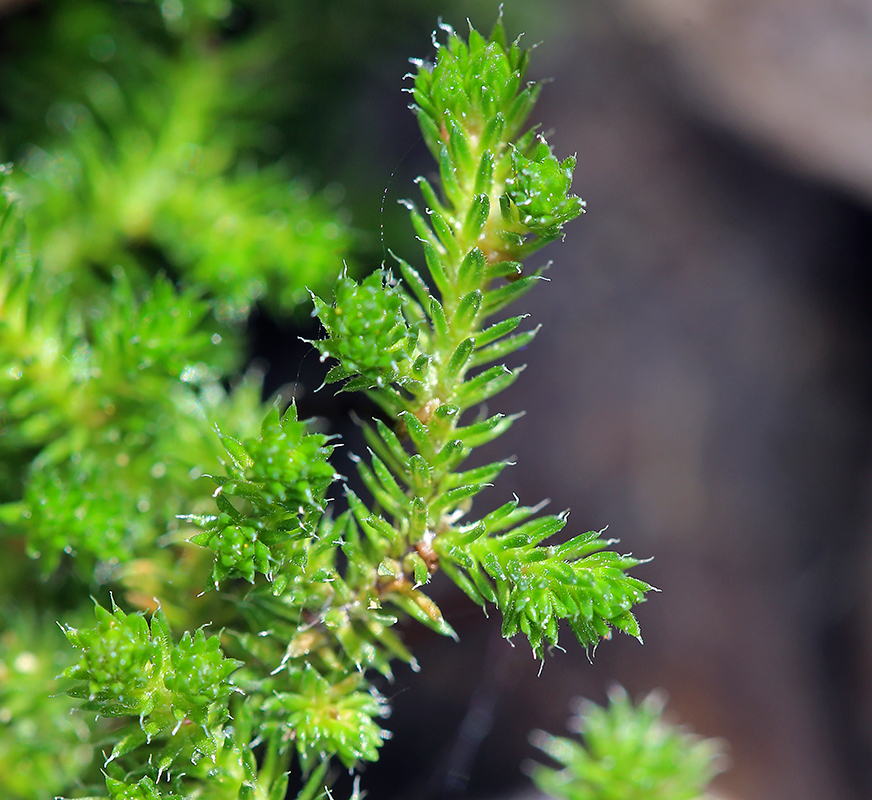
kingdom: Plantae
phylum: Tracheophyta
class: Lycopodiopsida
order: Selaginellales
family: Selaginellaceae
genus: Selaginella
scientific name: Selaginella watsonii
